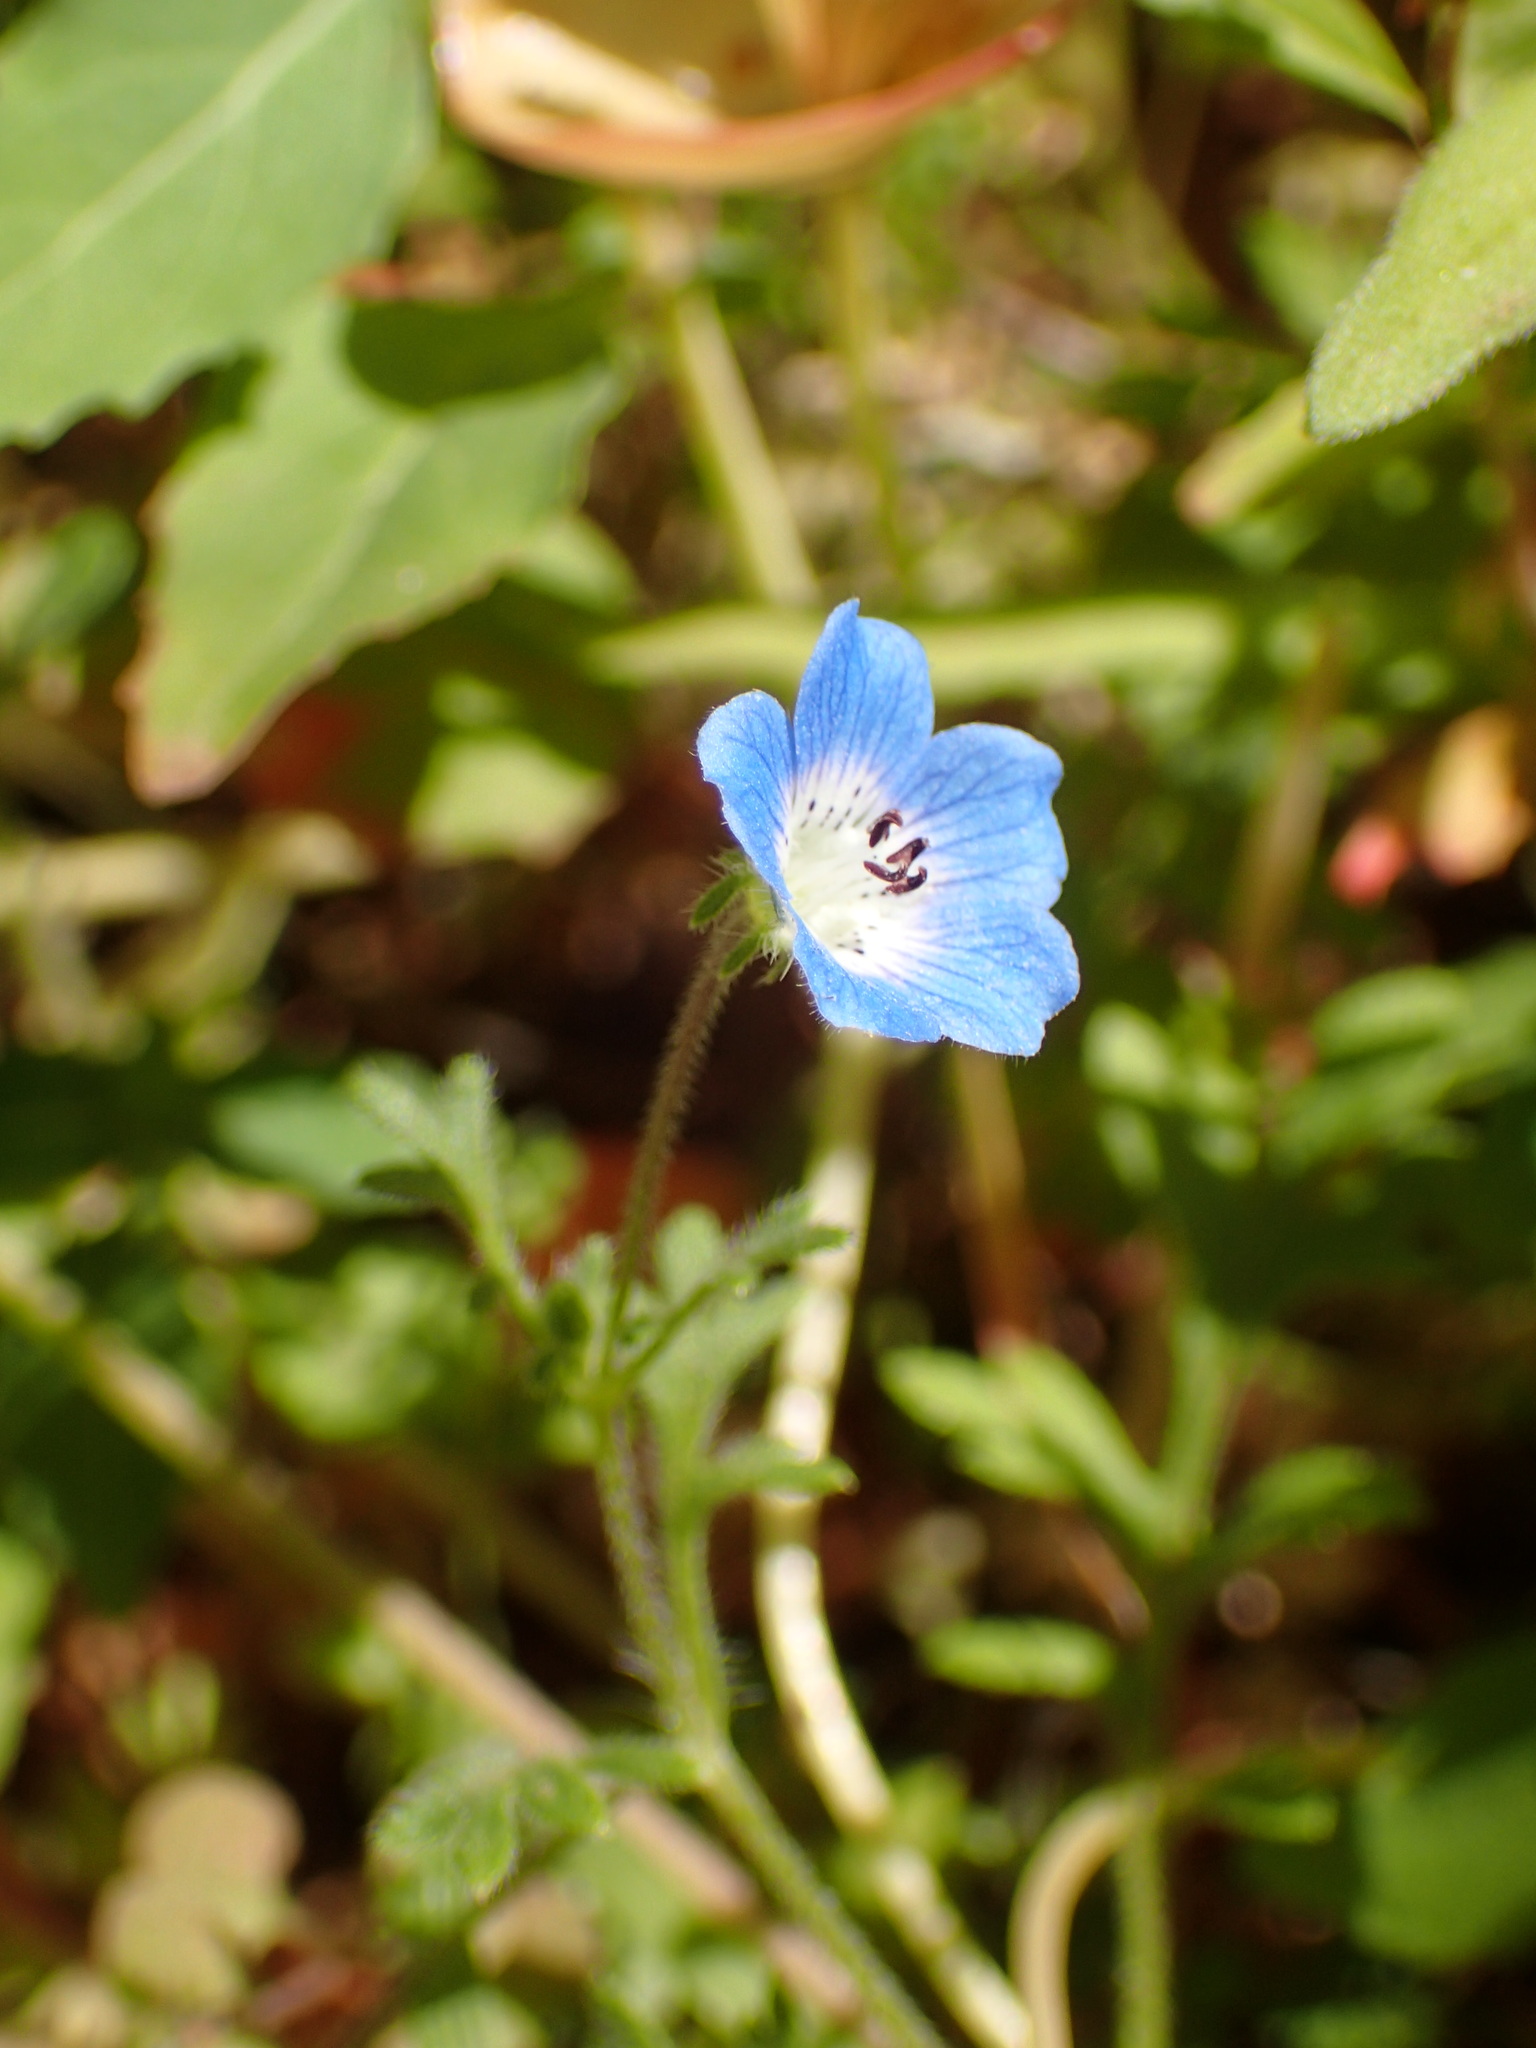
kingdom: Plantae
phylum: Tracheophyta
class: Magnoliopsida
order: Boraginales
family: Hydrophyllaceae
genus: Nemophila
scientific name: Nemophila menziesii
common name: Baby's-blue-eyes
